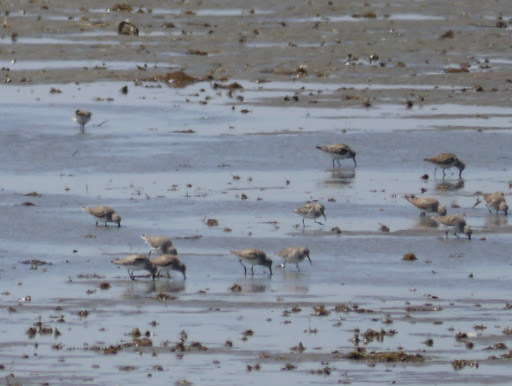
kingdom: Animalia
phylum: Chordata
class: Aves
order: Charadriiformes
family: Scolopacidae
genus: Calidris
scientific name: Calidris alpina
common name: Dunlin
